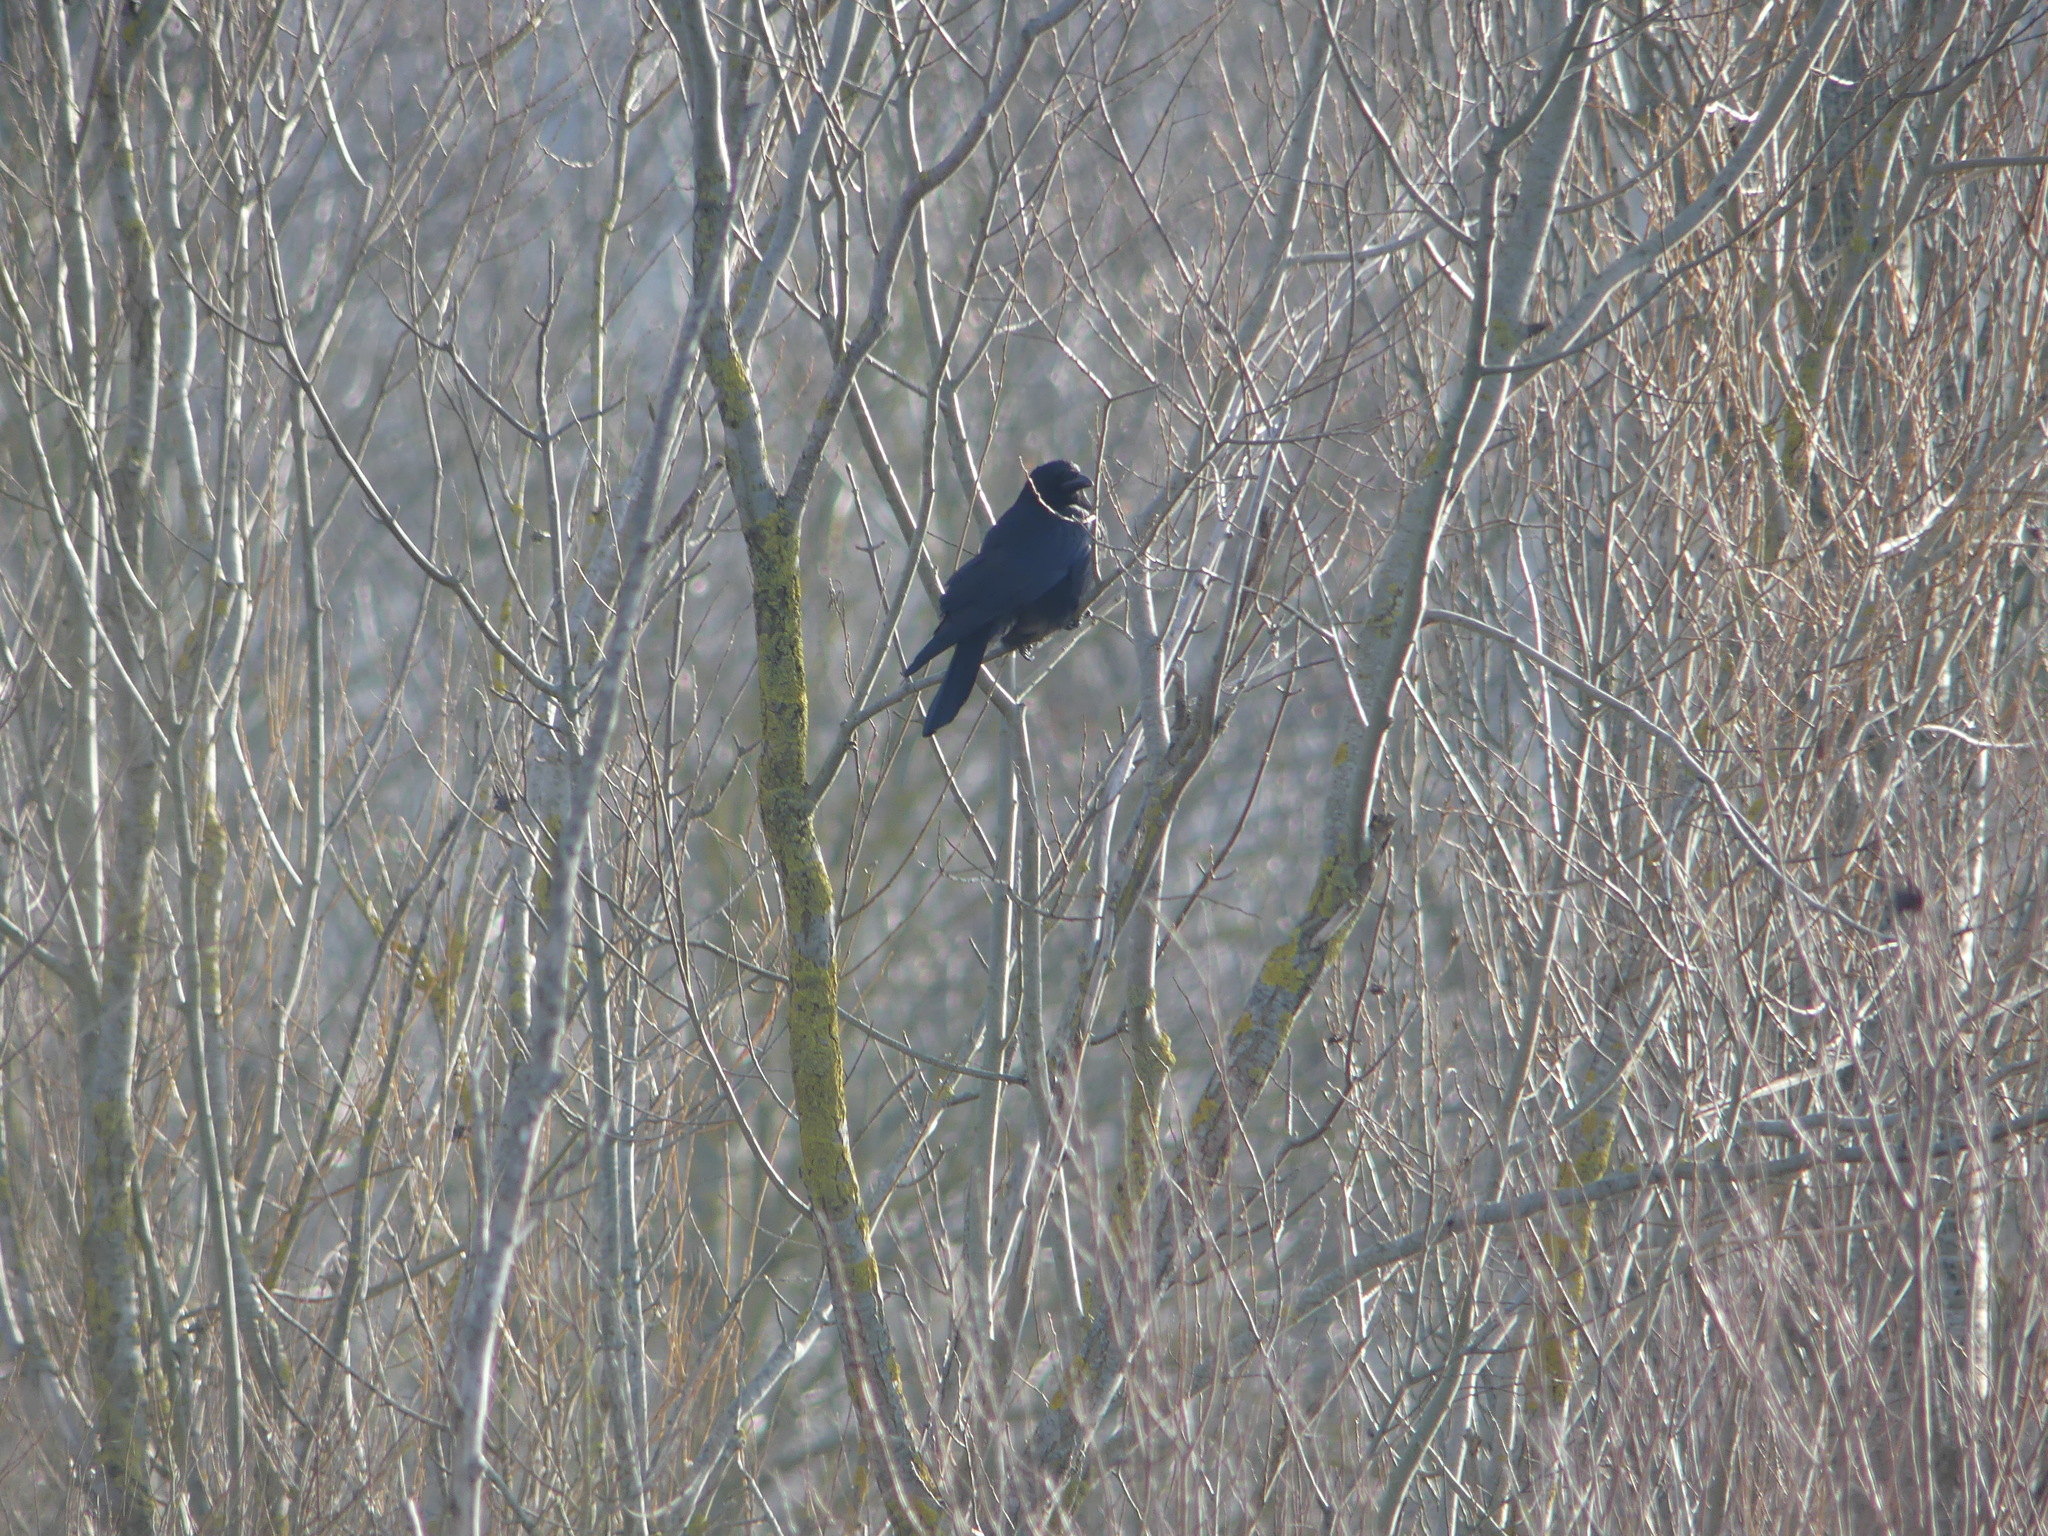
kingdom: Animalia
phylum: Chordata
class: Aves
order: Passeriformes
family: Corvidae
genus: Corvus
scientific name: Corvus corone
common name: Carrion crow
